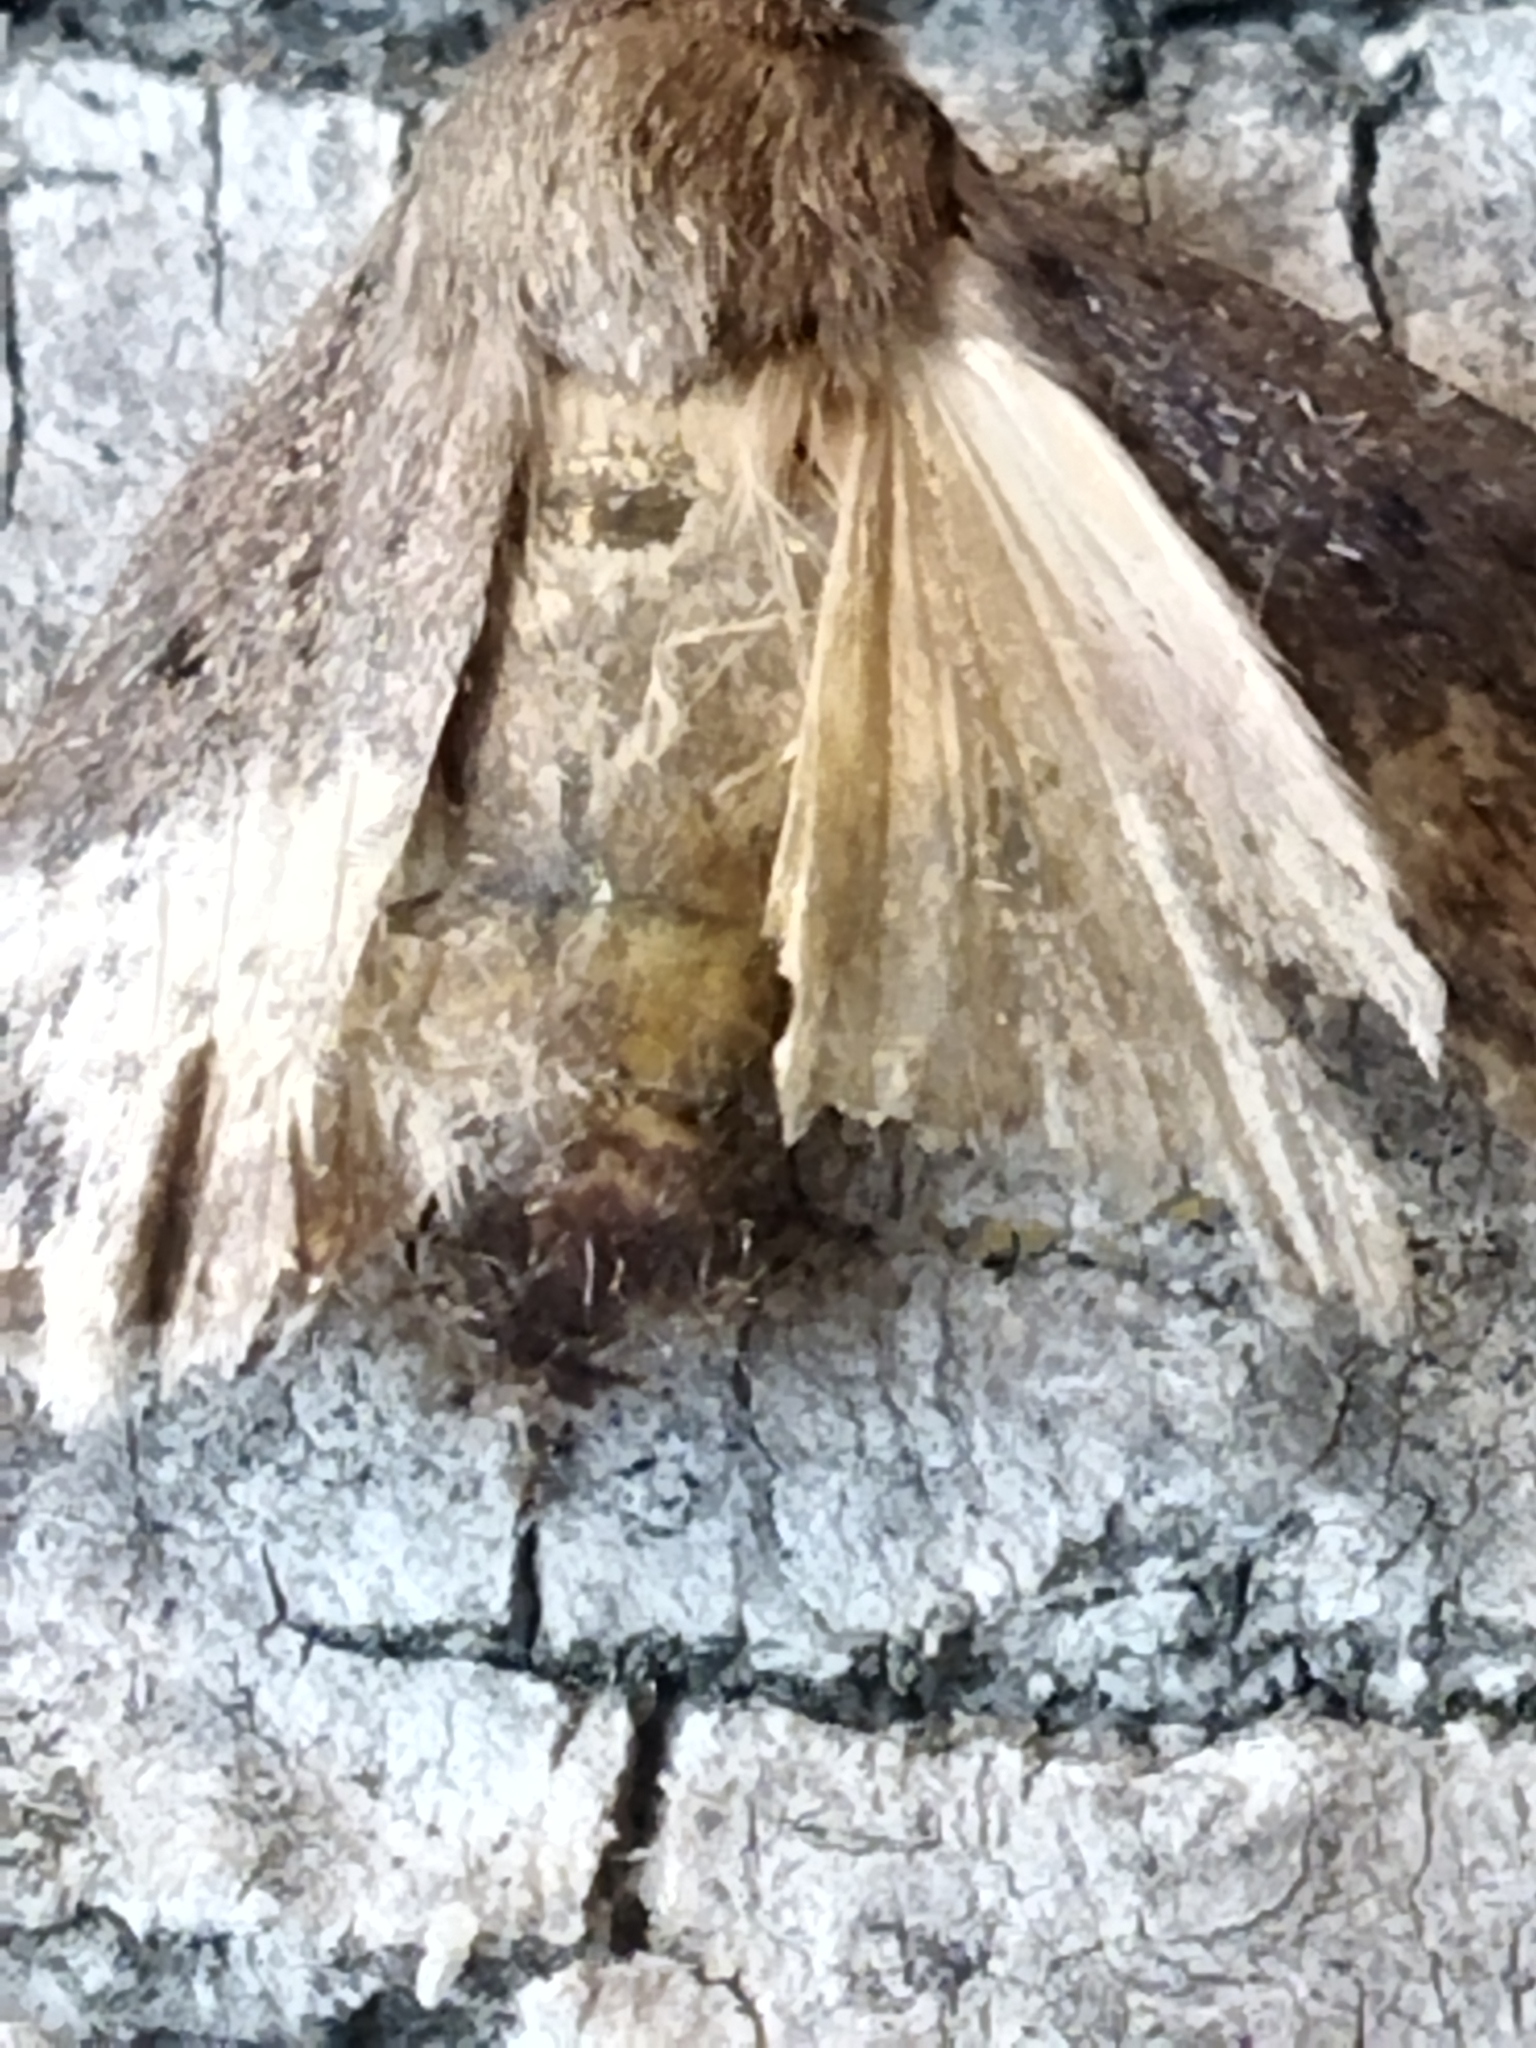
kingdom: Animalia
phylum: Arthropoda
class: Insecta
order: Lepidoptera
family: Noctuidae
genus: Amphipyra
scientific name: Amphipyra tragopoginis
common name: Mouse moth
